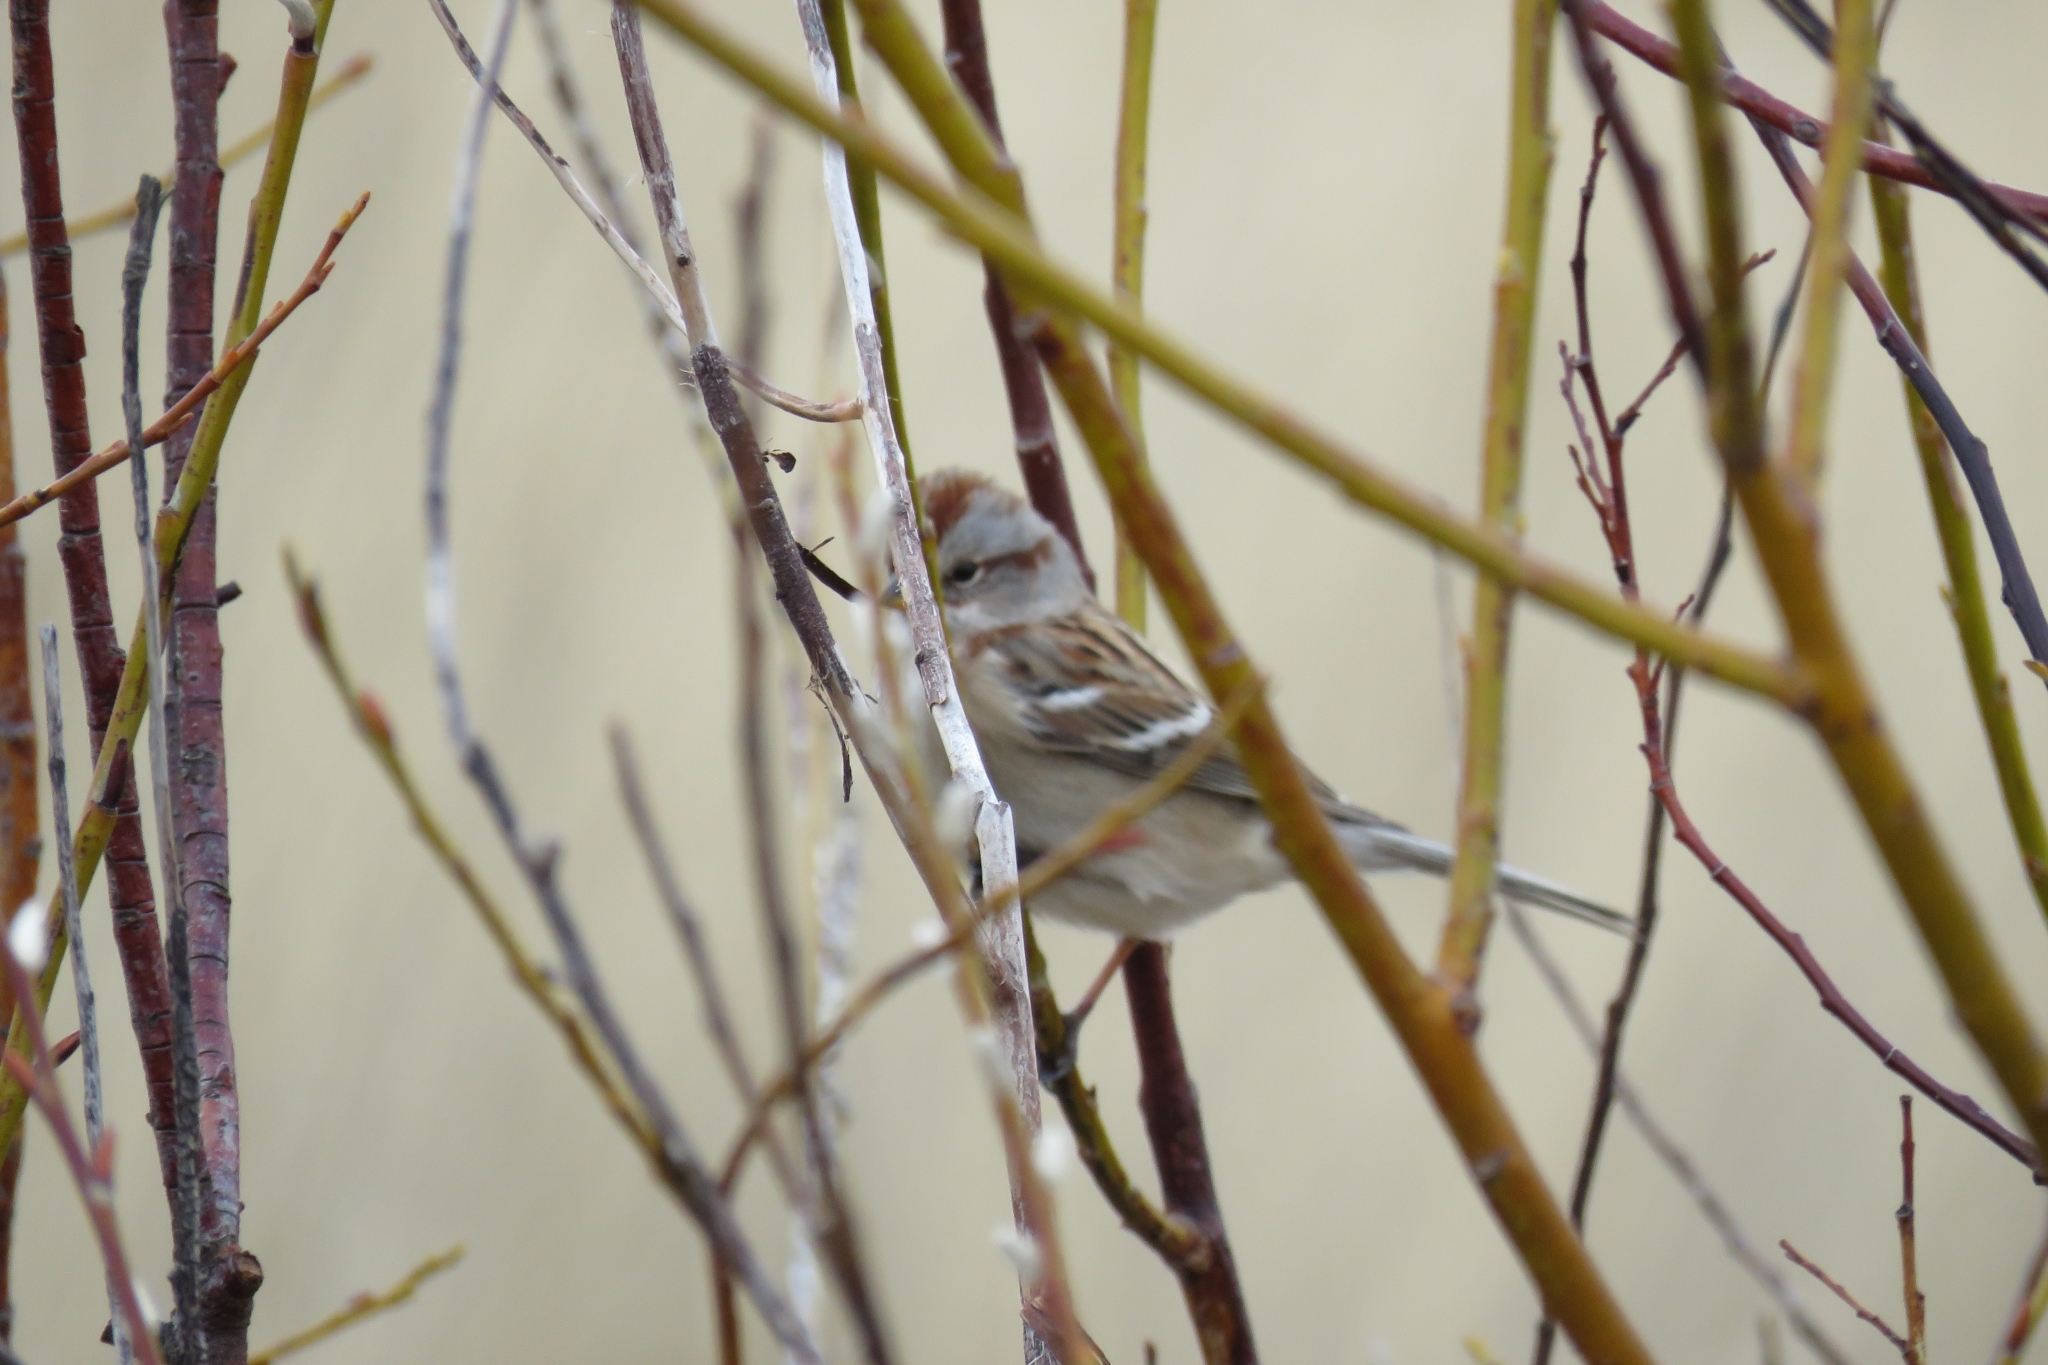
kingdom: Animalia
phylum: Chordata
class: Aves
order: Passeriformes
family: Passerellidae
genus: Spizelloides
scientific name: Spizelloides arborea
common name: American tree sparrow
